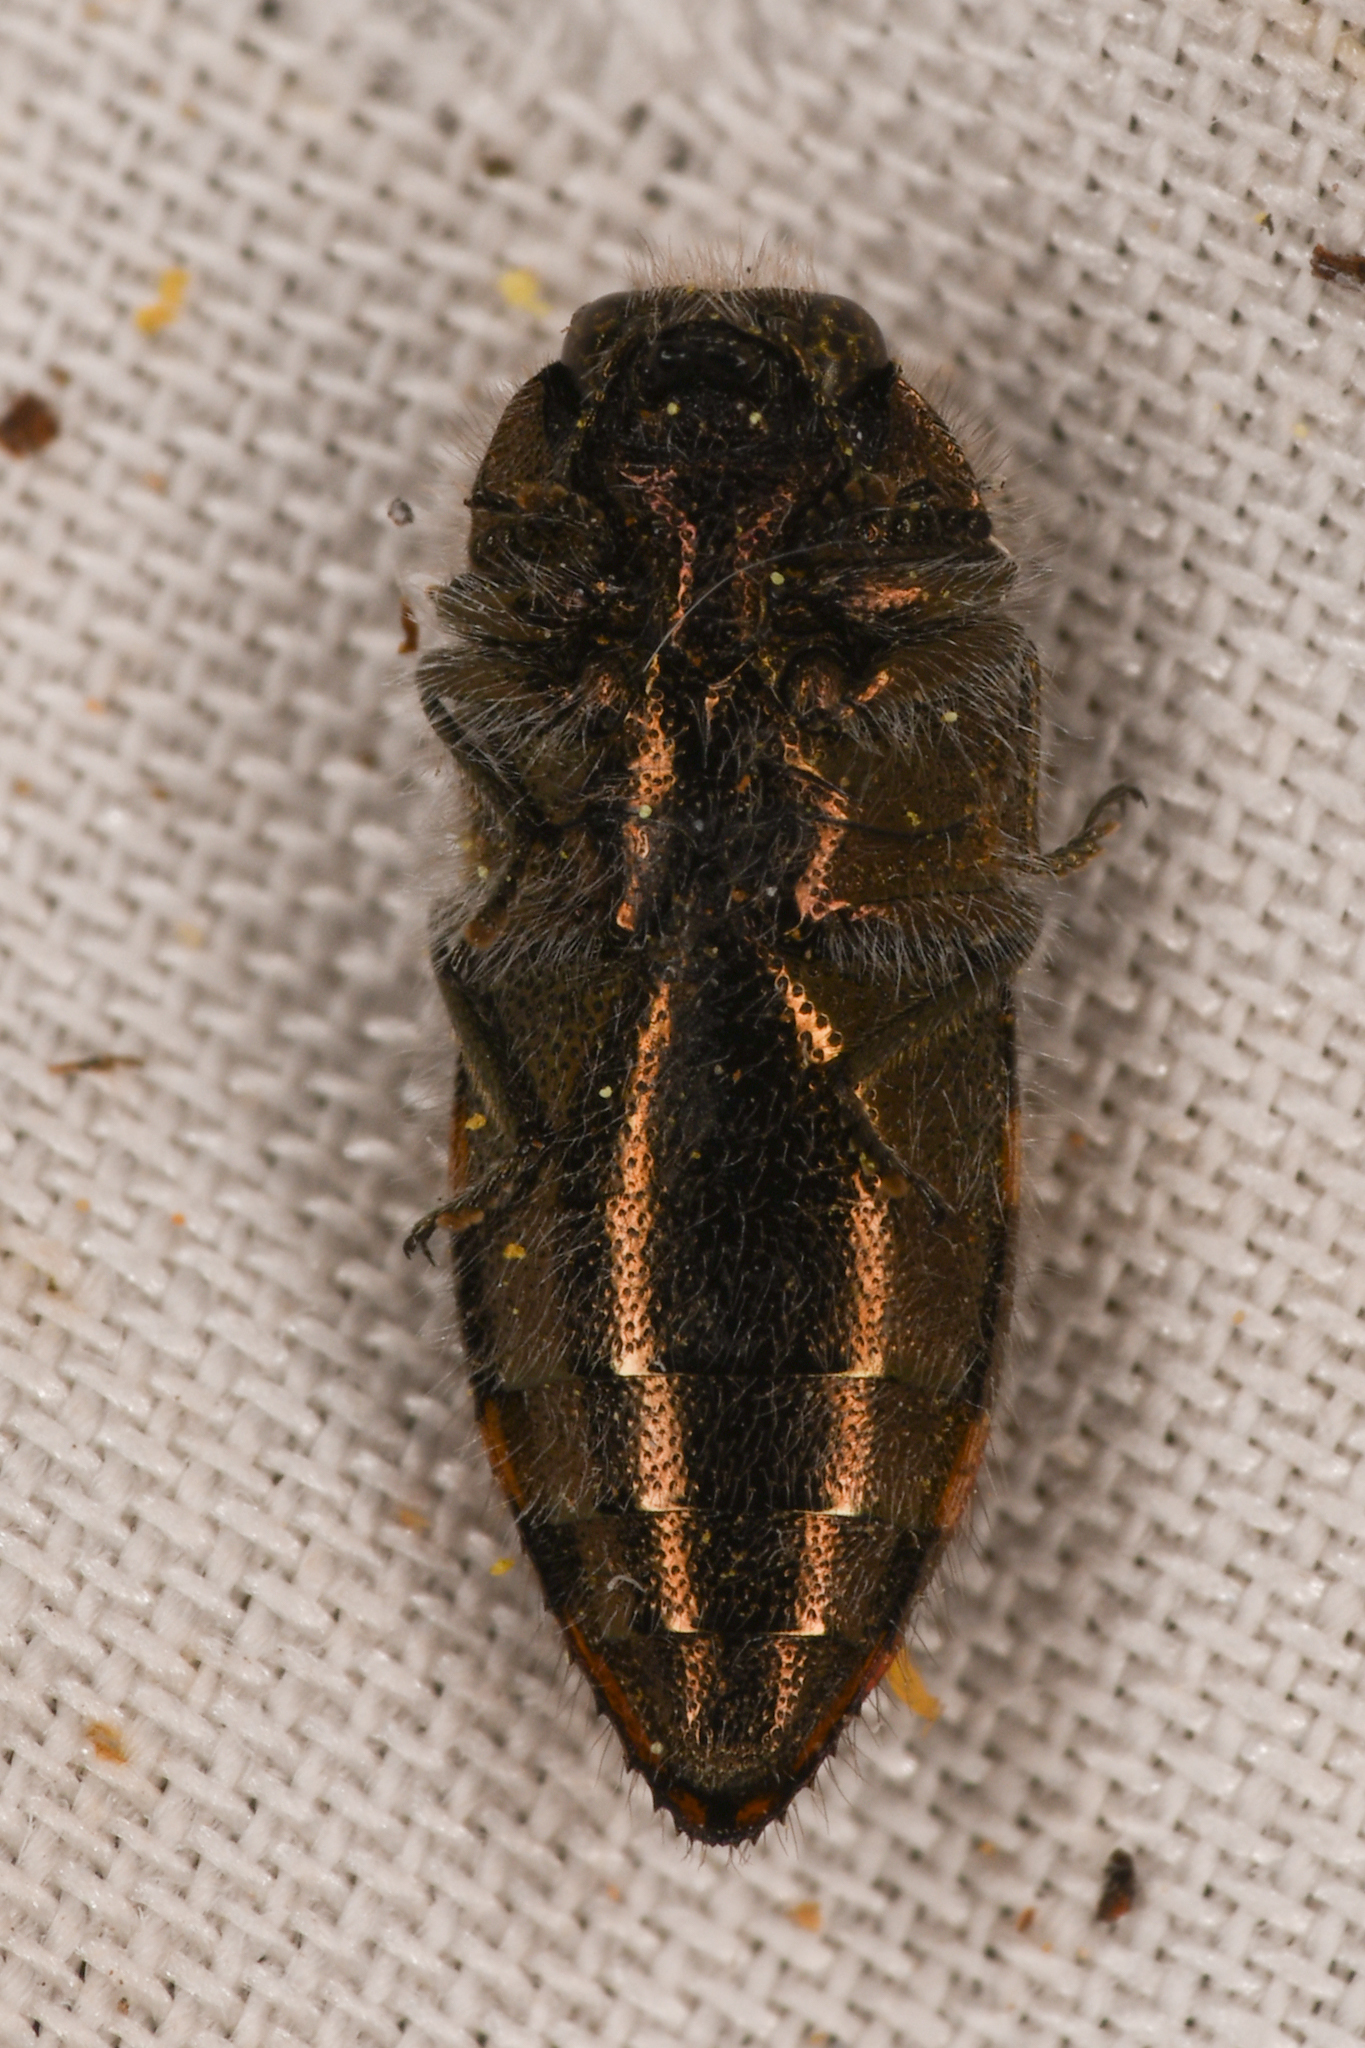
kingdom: Animalia
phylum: Arthropoda
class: Insecta
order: Coleoptera
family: Buprestidae
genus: Acmaeodera
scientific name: Acmaeodera coquilletti
